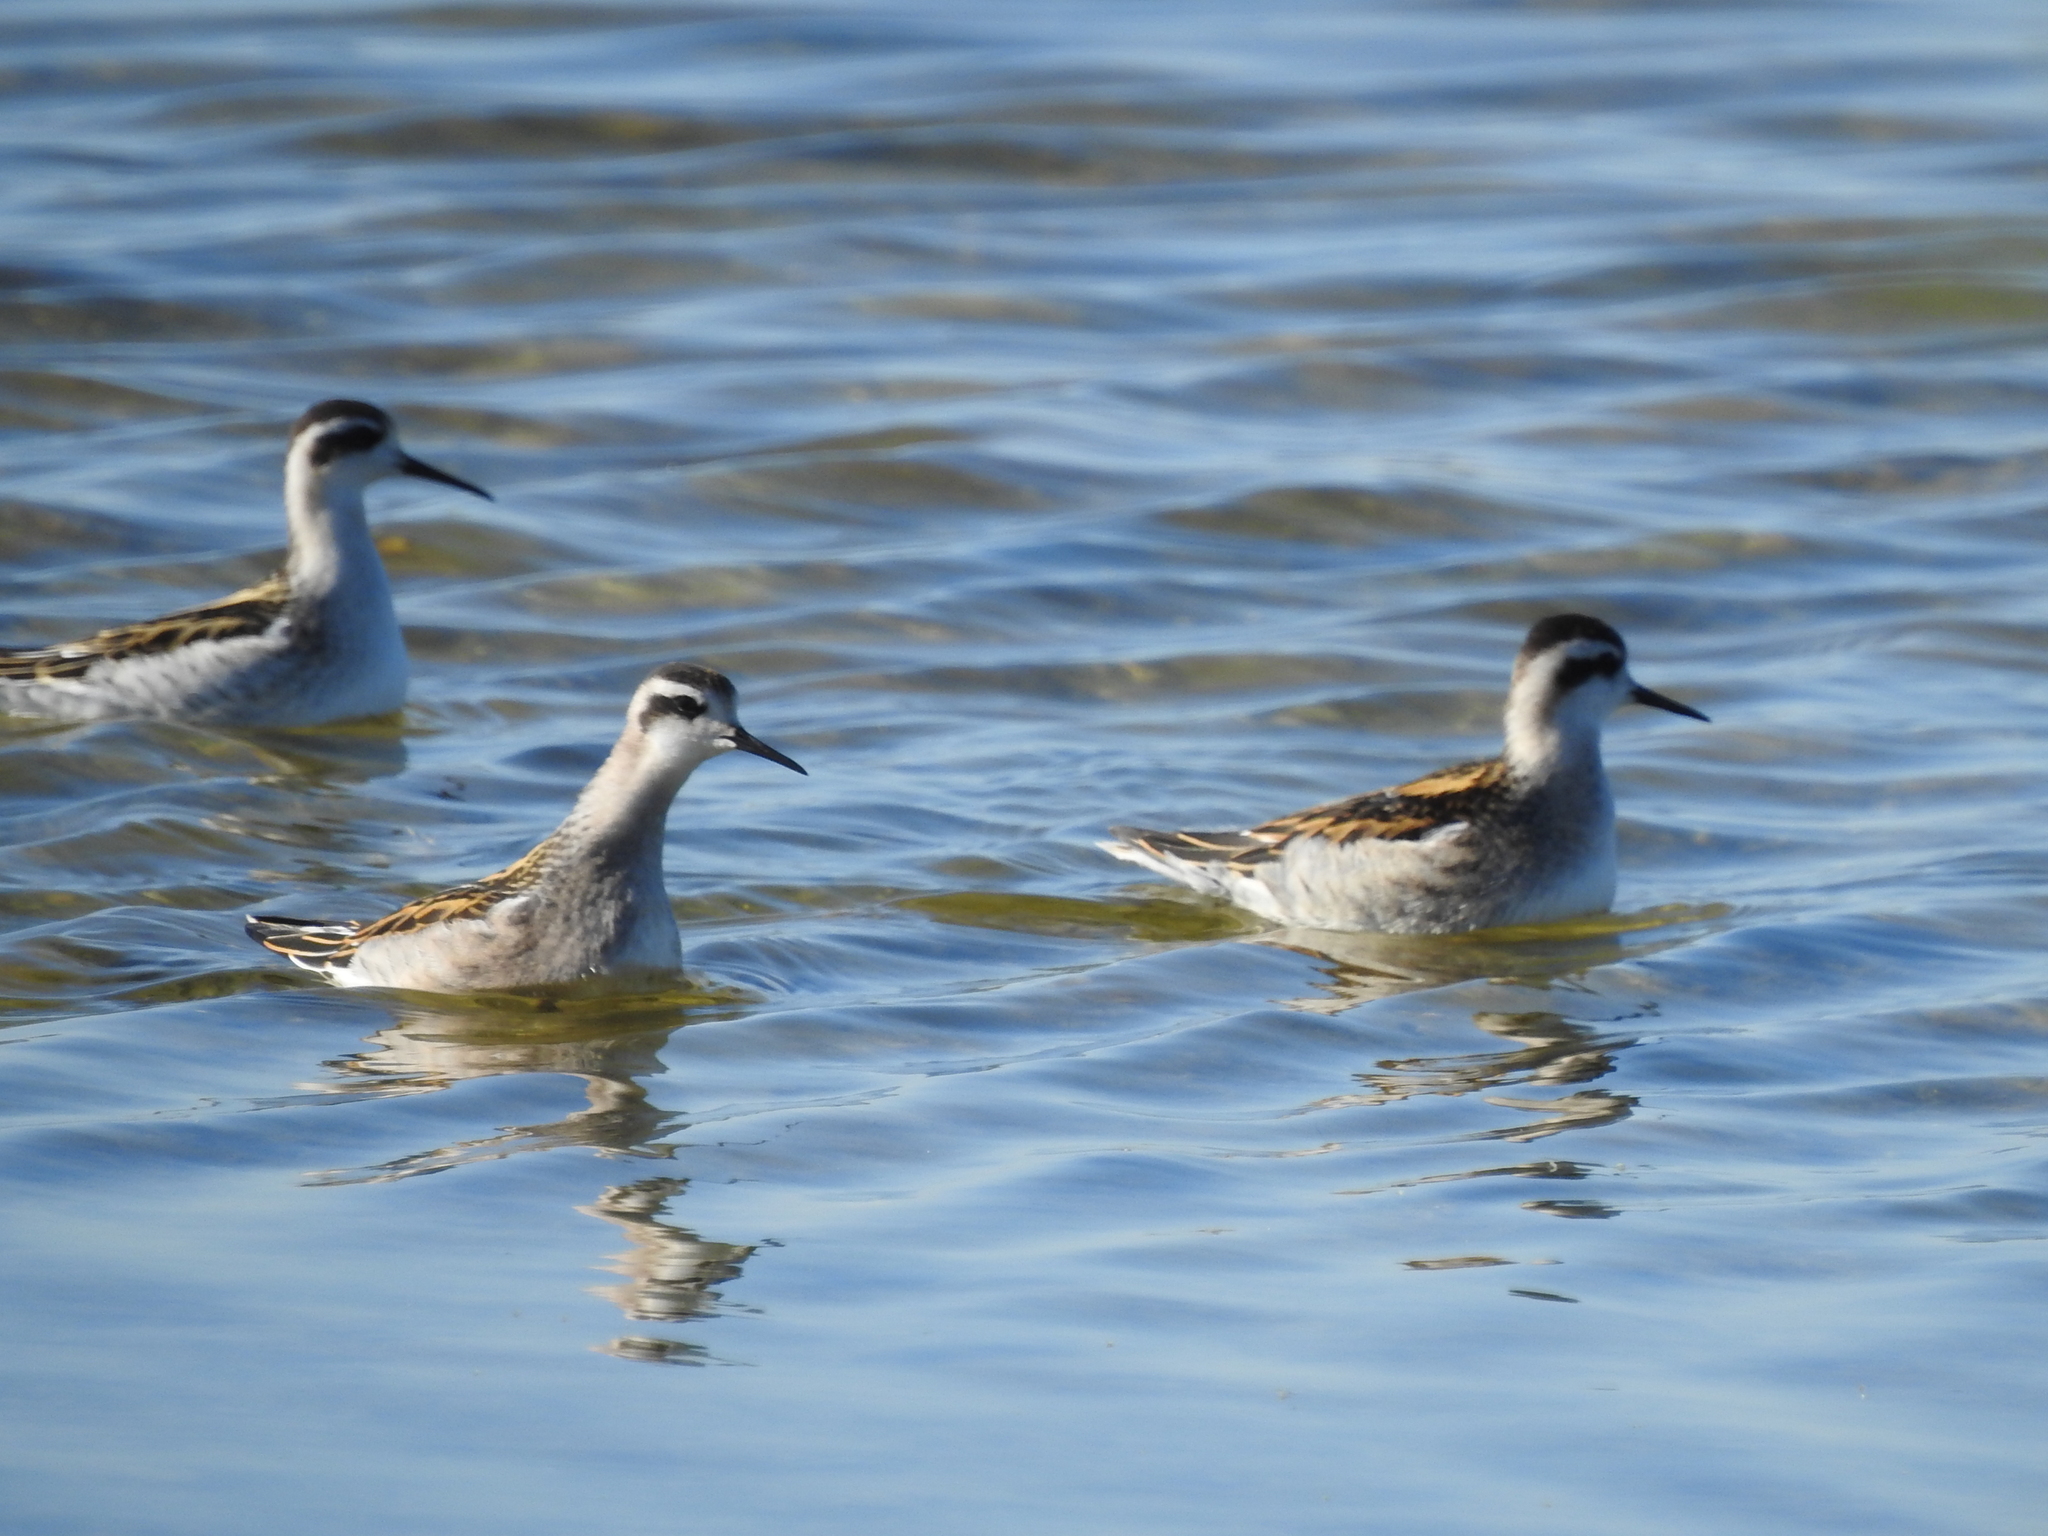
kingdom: Animalia
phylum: Chordata
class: Aves
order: Charadriiformes
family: Scolopacidae
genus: Phalaropus
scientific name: Phalaropus lobatus
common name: Red-necked phalarope
